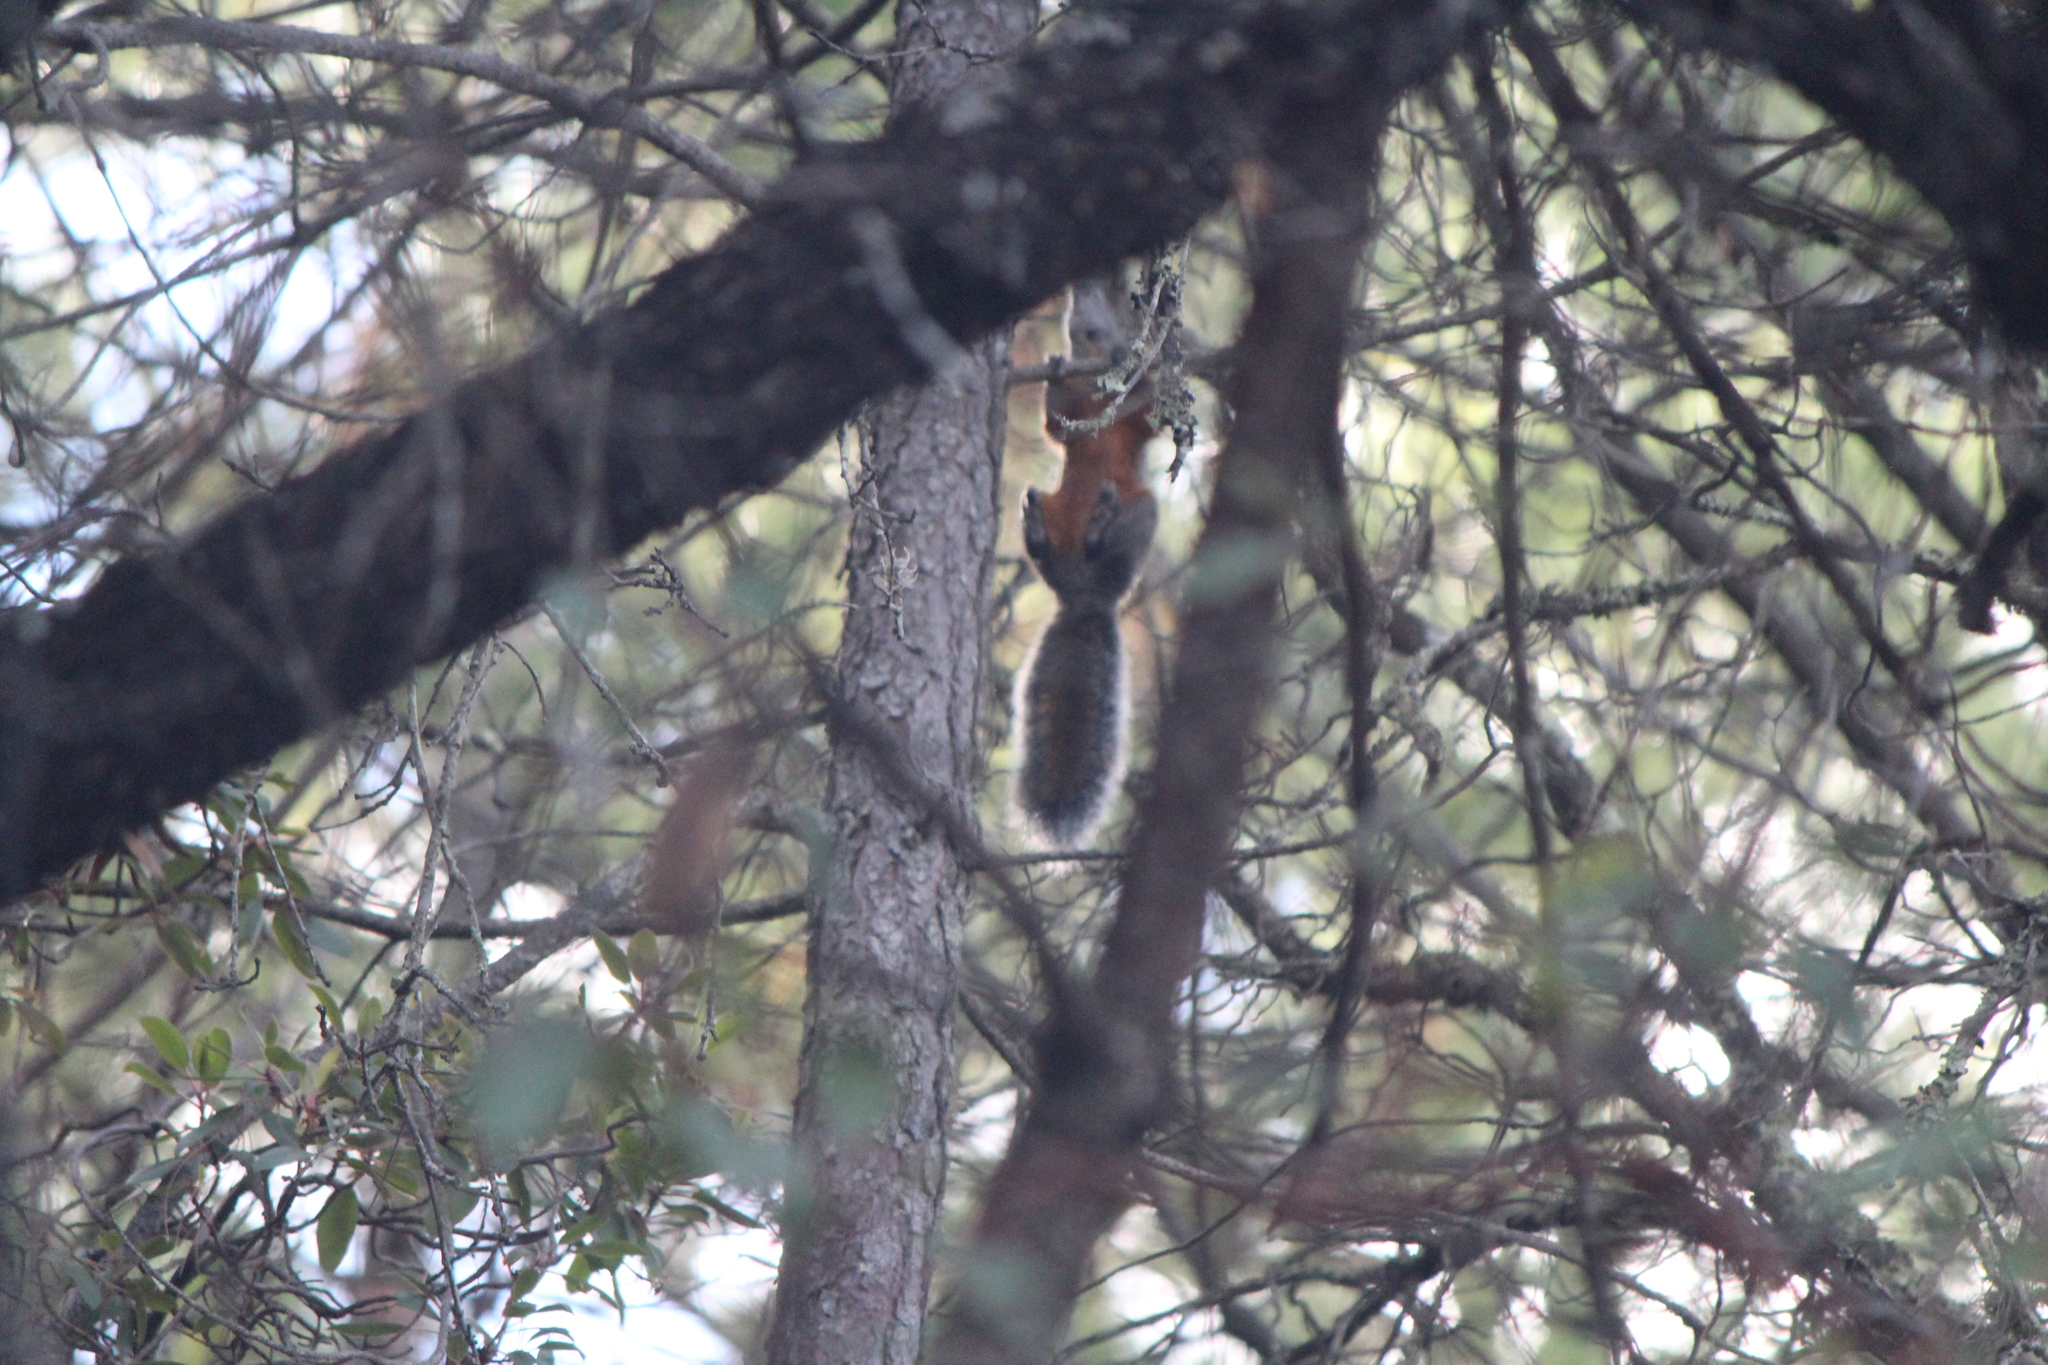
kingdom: Animalia
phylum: Chordata
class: Mammalia
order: Rodentia
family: Sciuridae
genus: Sciurus
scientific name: Sciurus aureogaster
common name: Red-bellied squirrel
